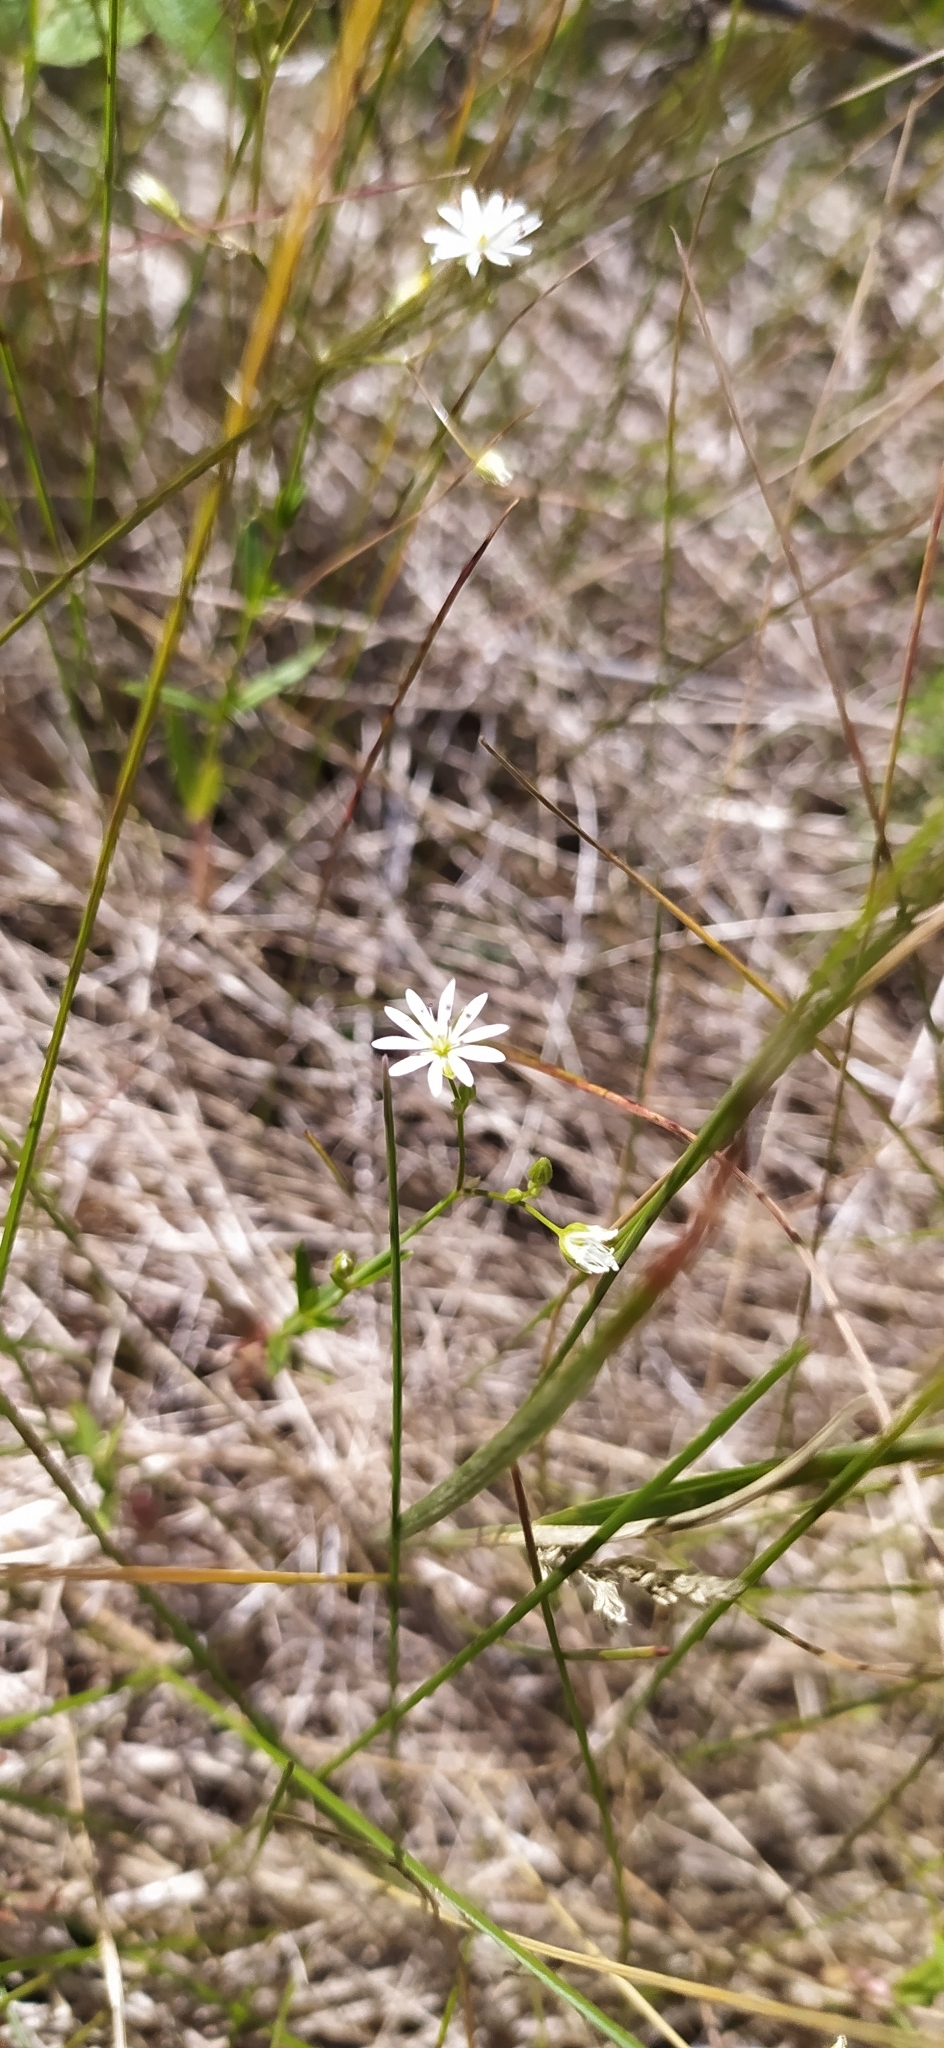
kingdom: Plantae
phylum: Tracheophyta
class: Magnoliopsida
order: Caryophyllales
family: Caryophyllaceae
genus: Stellaria
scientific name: Stellaria graminea
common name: Grass-like starwort
